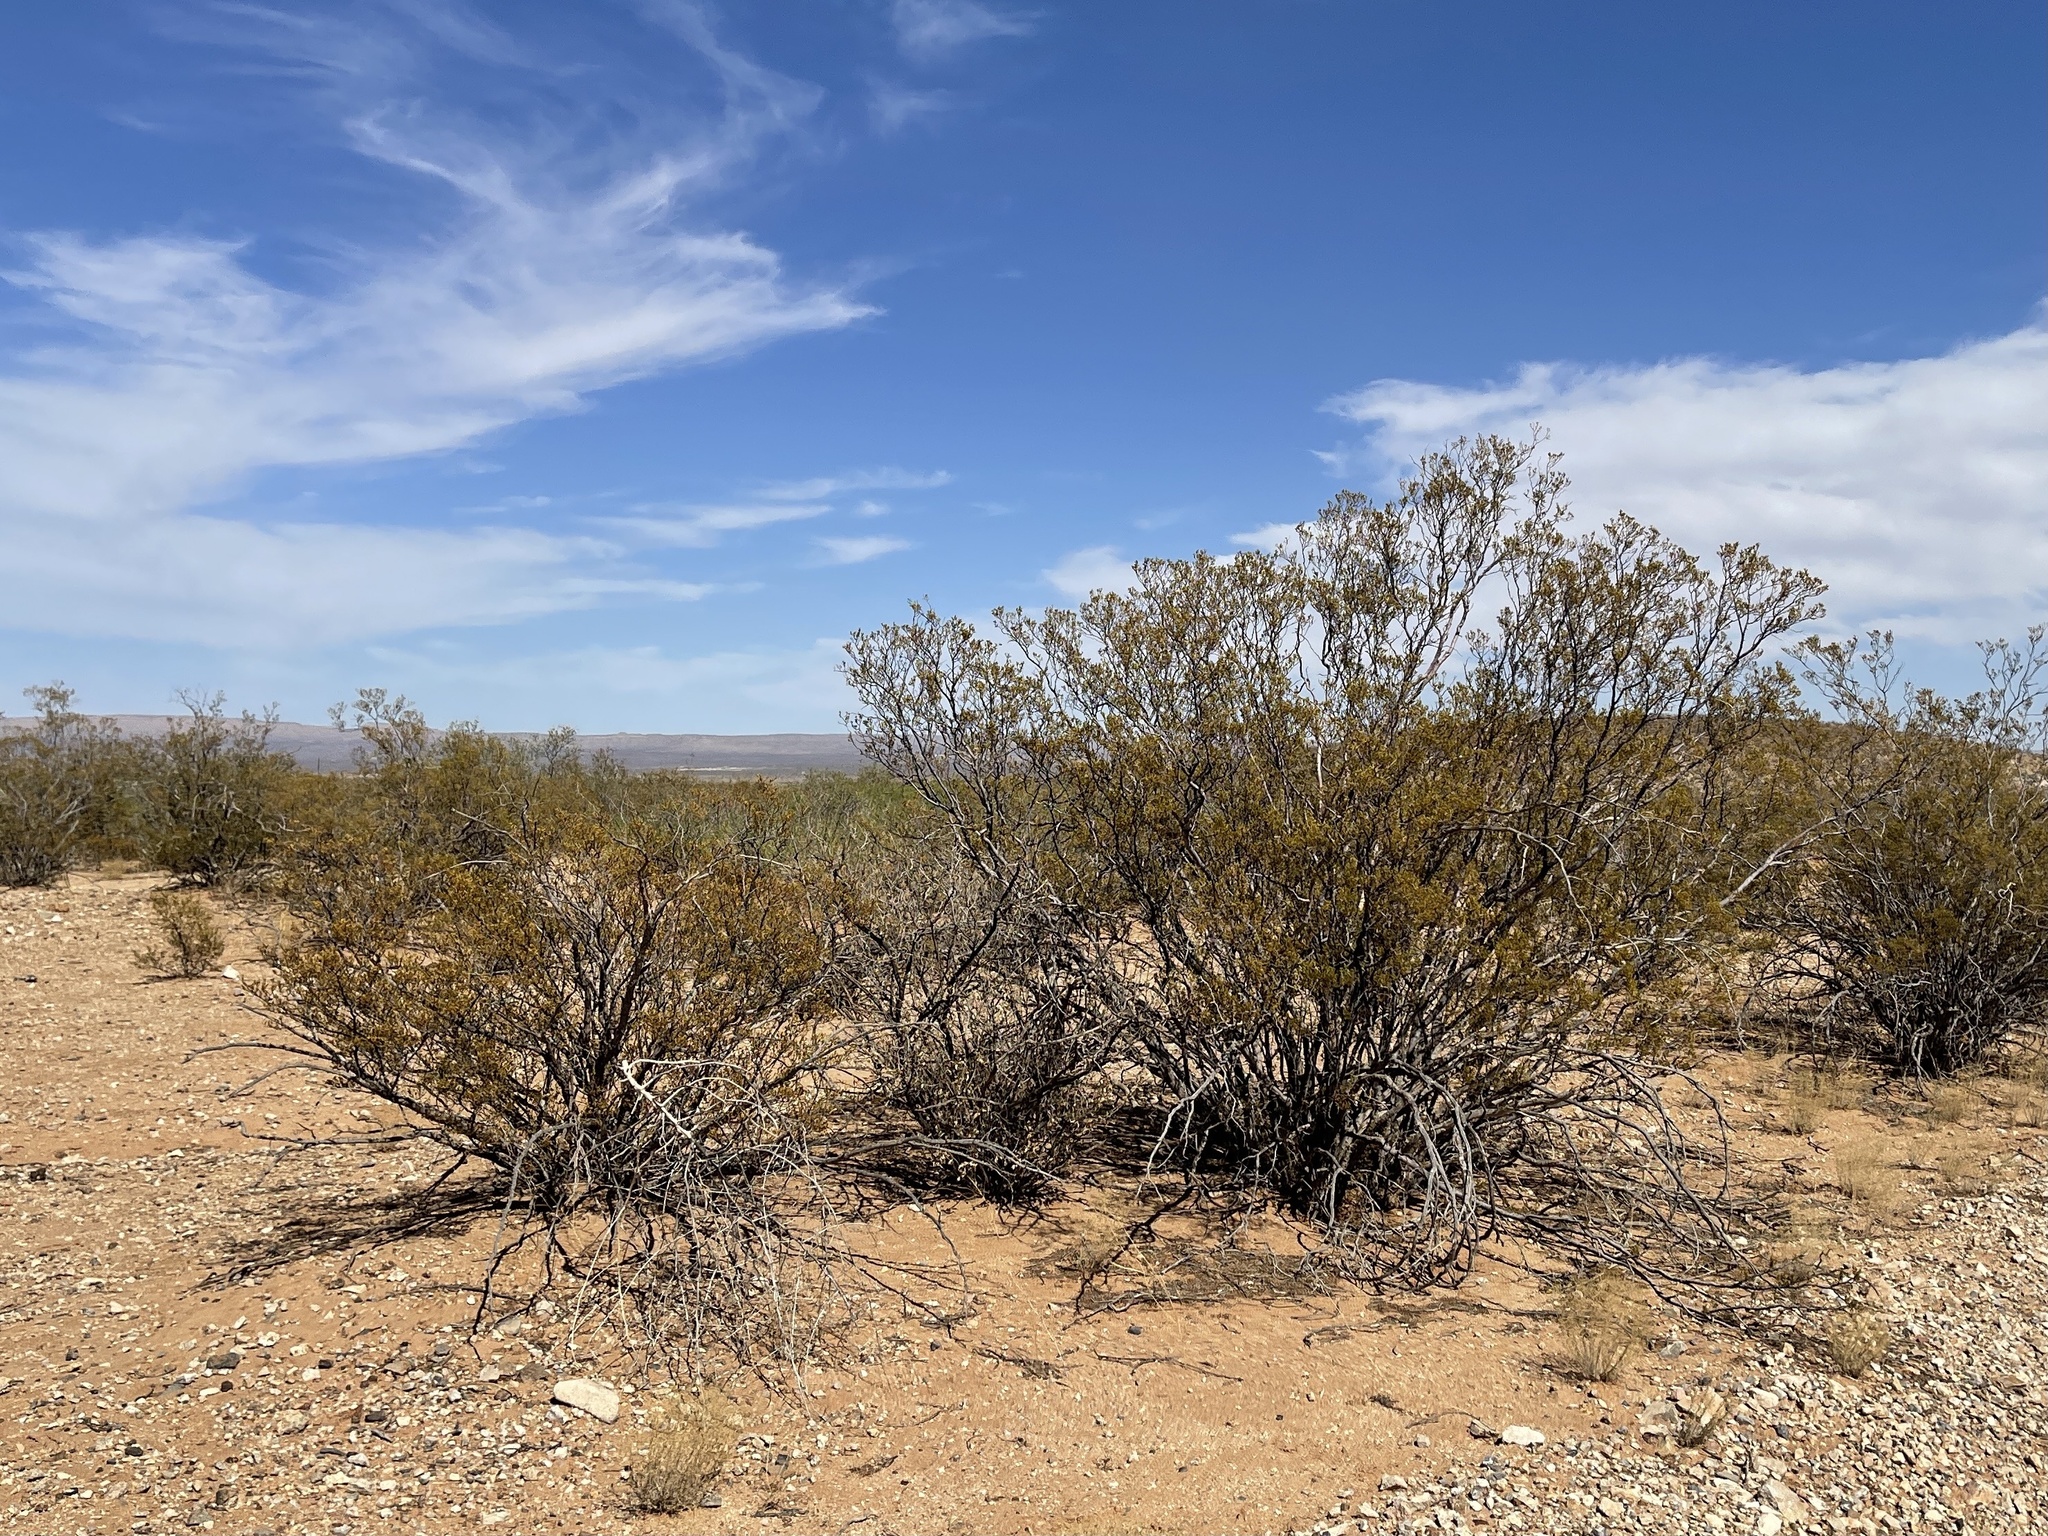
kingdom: Plantae
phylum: Tracheophyta
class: Magnoliopsida
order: Zygophyllales
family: Zygophyllaceae
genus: Larrea
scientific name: Larrea tridentata
